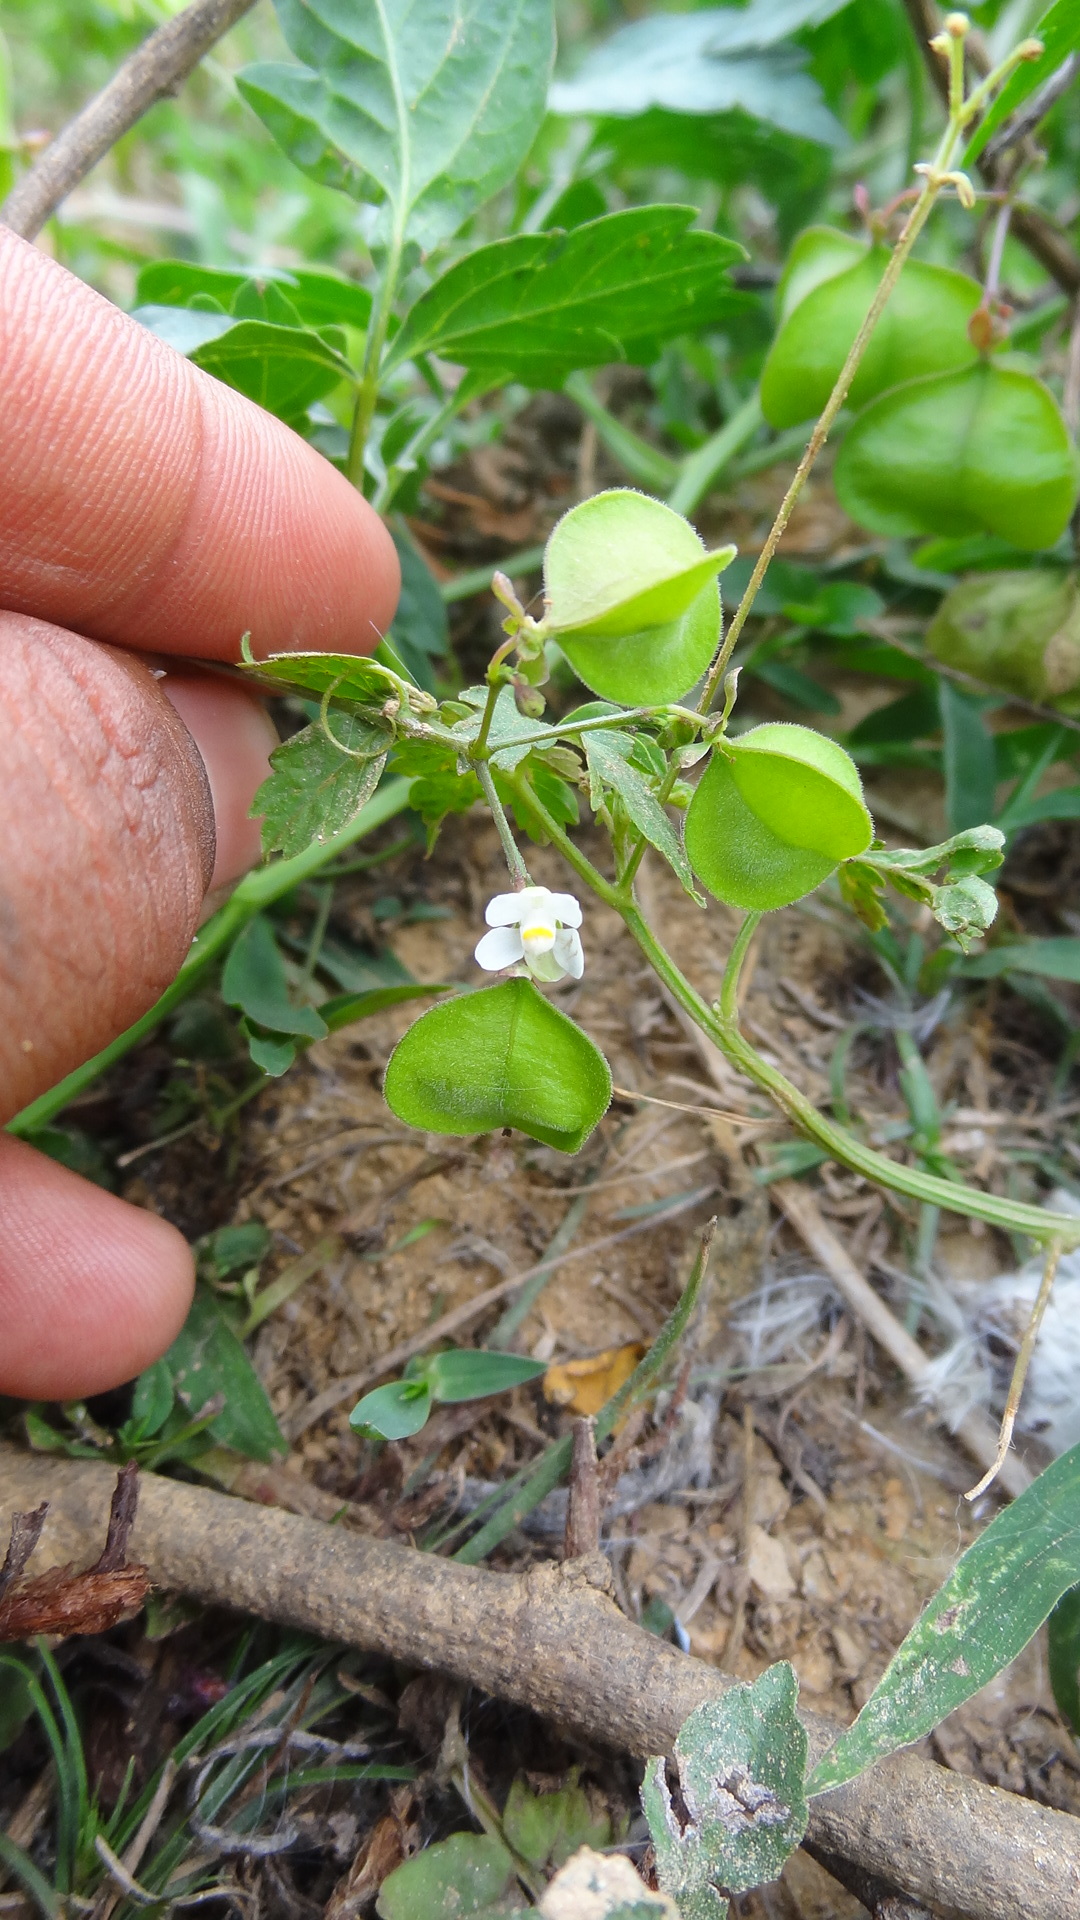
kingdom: Plantae
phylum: Tracheophyta
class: Magnoliopsida
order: Sapindales
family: Sapindaceae
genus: Cardiospermum
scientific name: Cardiospermum halicacabum
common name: Balloon vine
